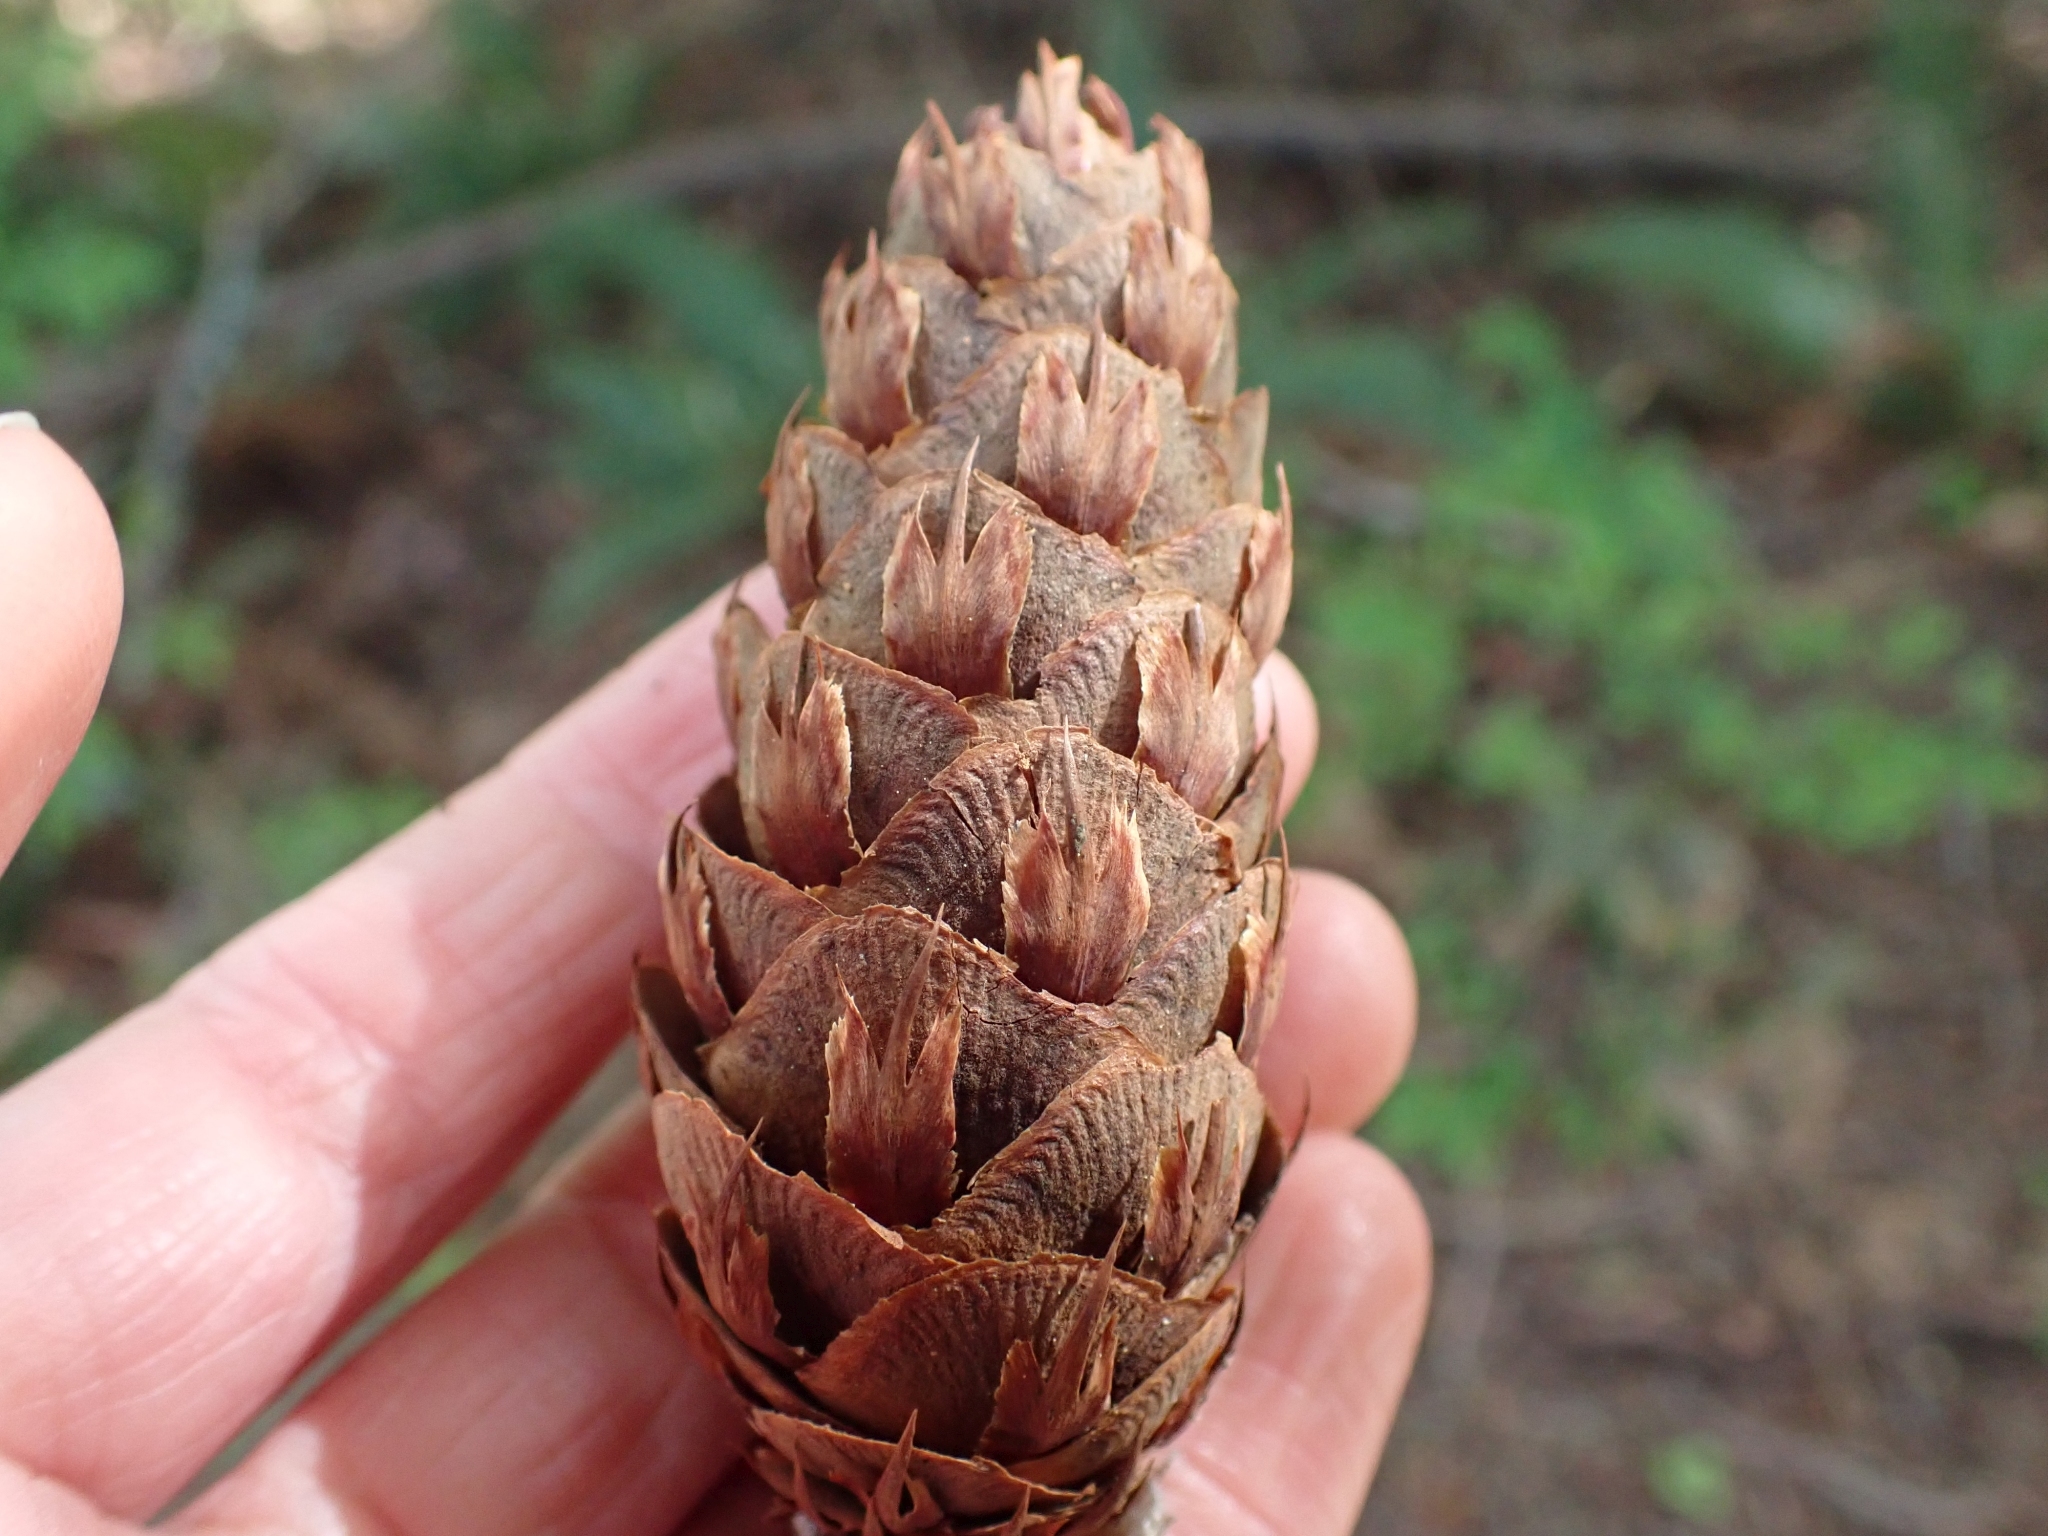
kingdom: Plantae
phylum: Tracheophyta
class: Pinopsida
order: Pinales
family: Pinaceae
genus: Pseudotsuga
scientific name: Pseudotsuga menziesii
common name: Douglas fir
